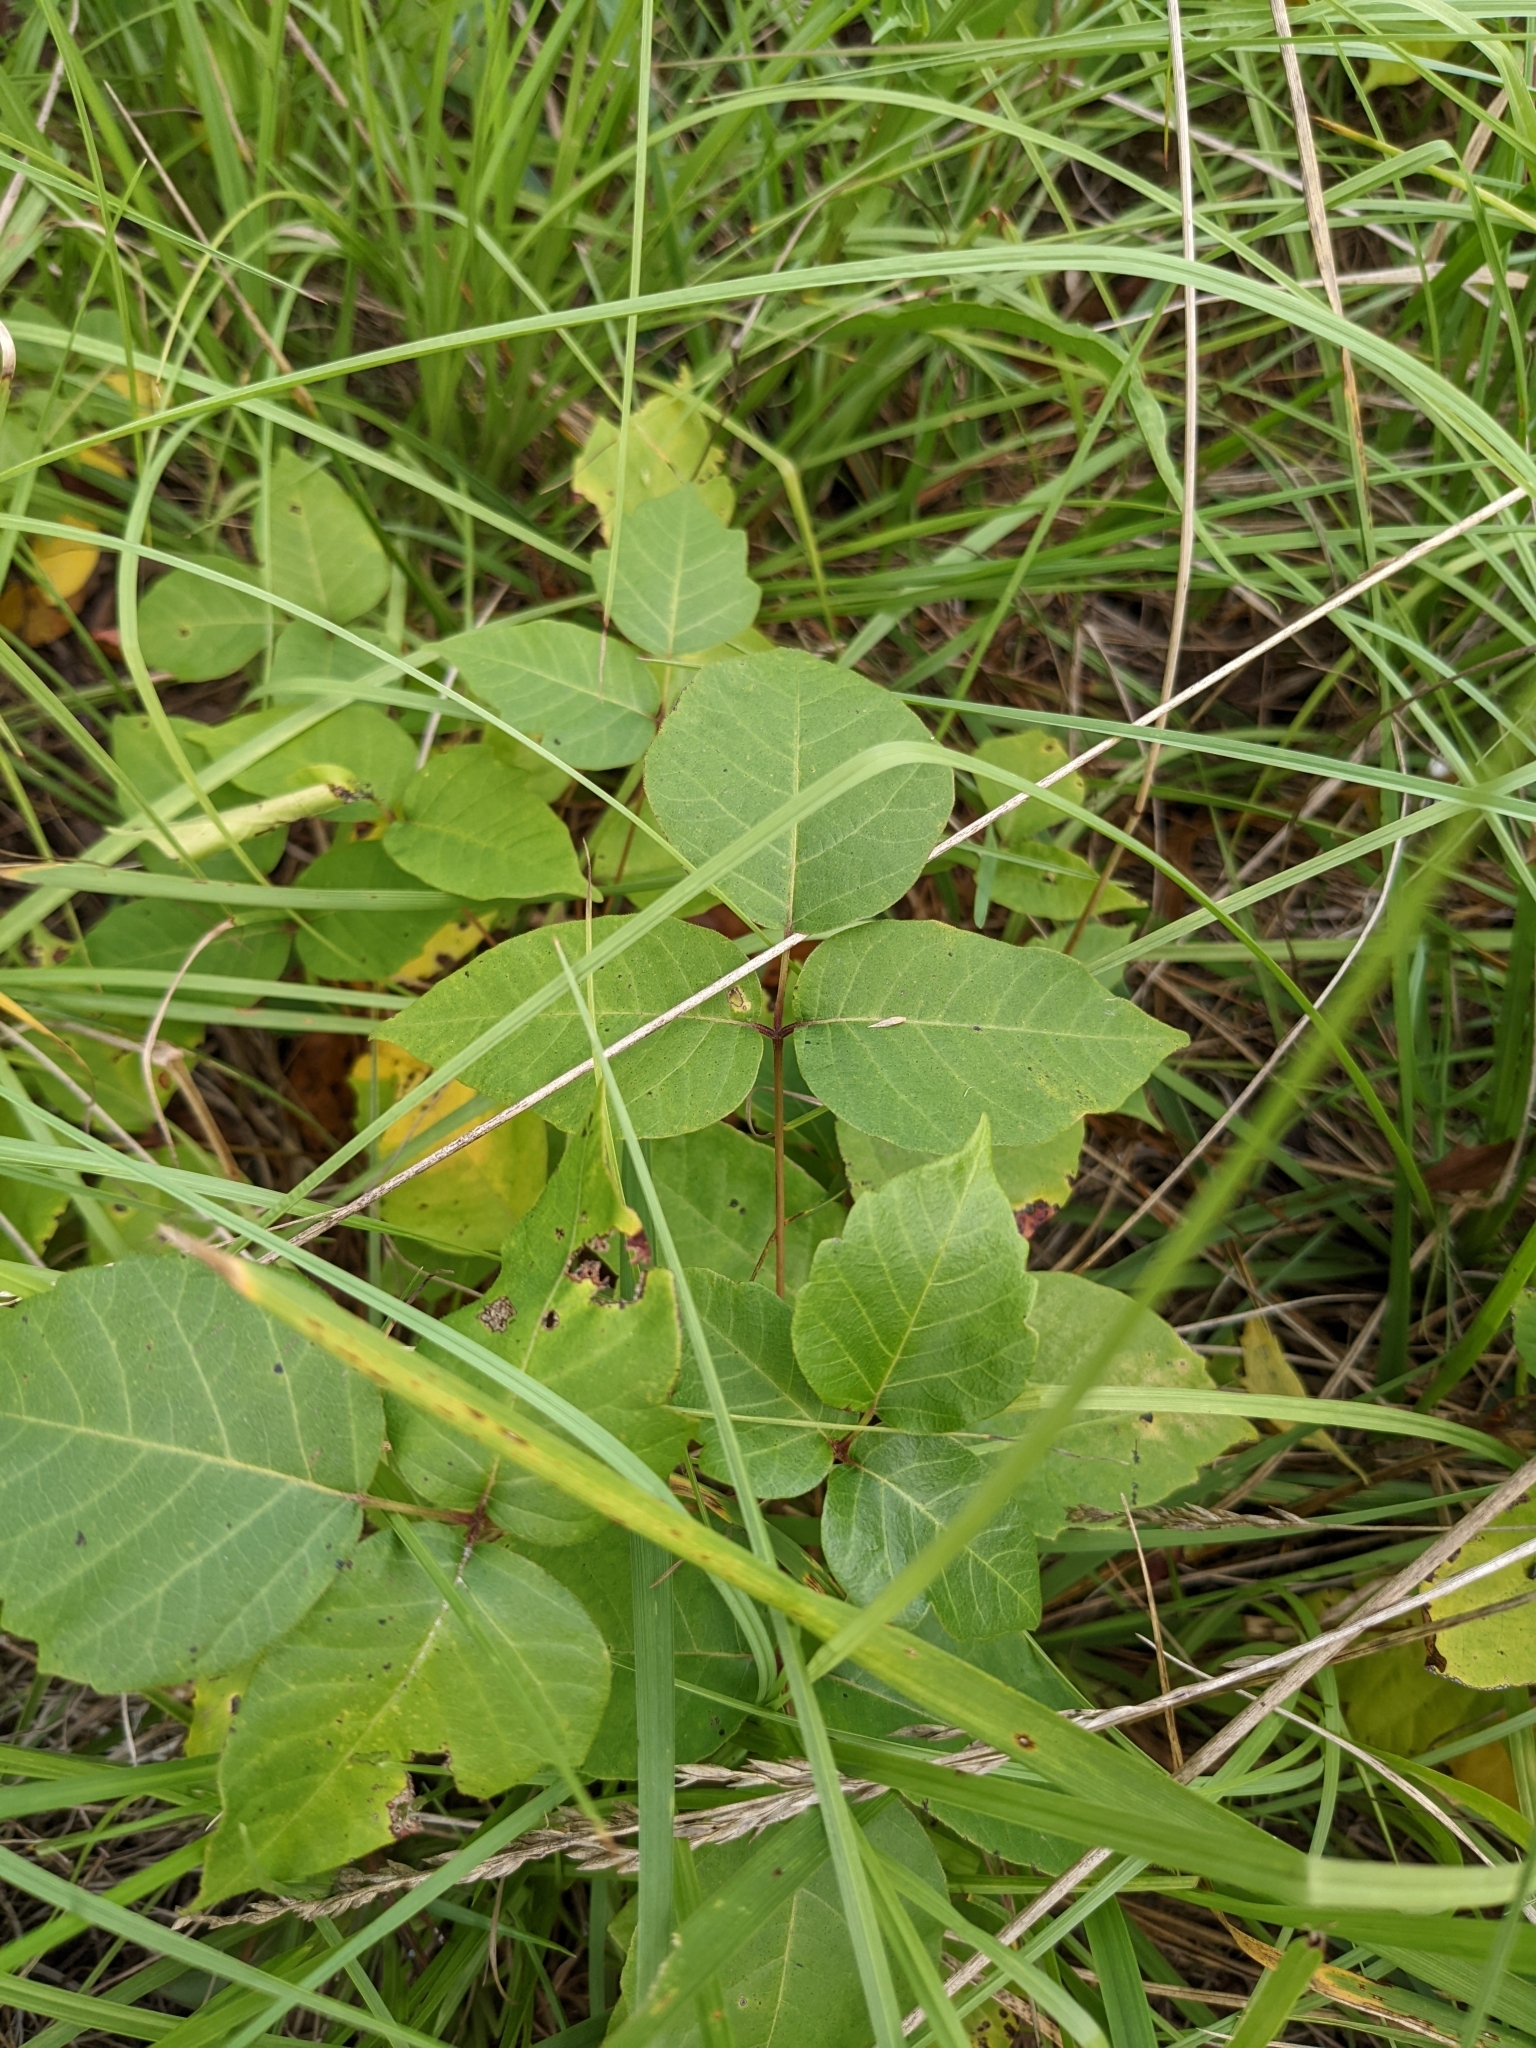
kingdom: Plantae
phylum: Tracheophyta
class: Magnoliopsida
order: Sapindales
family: Anacardiaceae
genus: Toxicodendron
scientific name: Toxicodendron radicans
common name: Poison ivy
